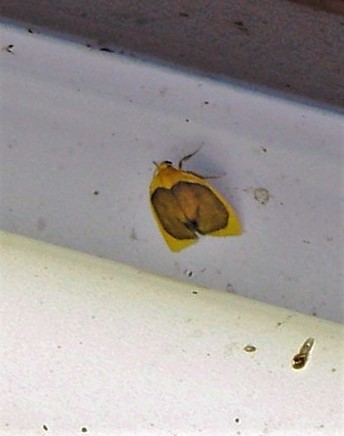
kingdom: Animalia
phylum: Arthropoda
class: Insecta
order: Lepidoptera
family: Erebidae
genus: Pronola
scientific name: Pronola magniplaga
